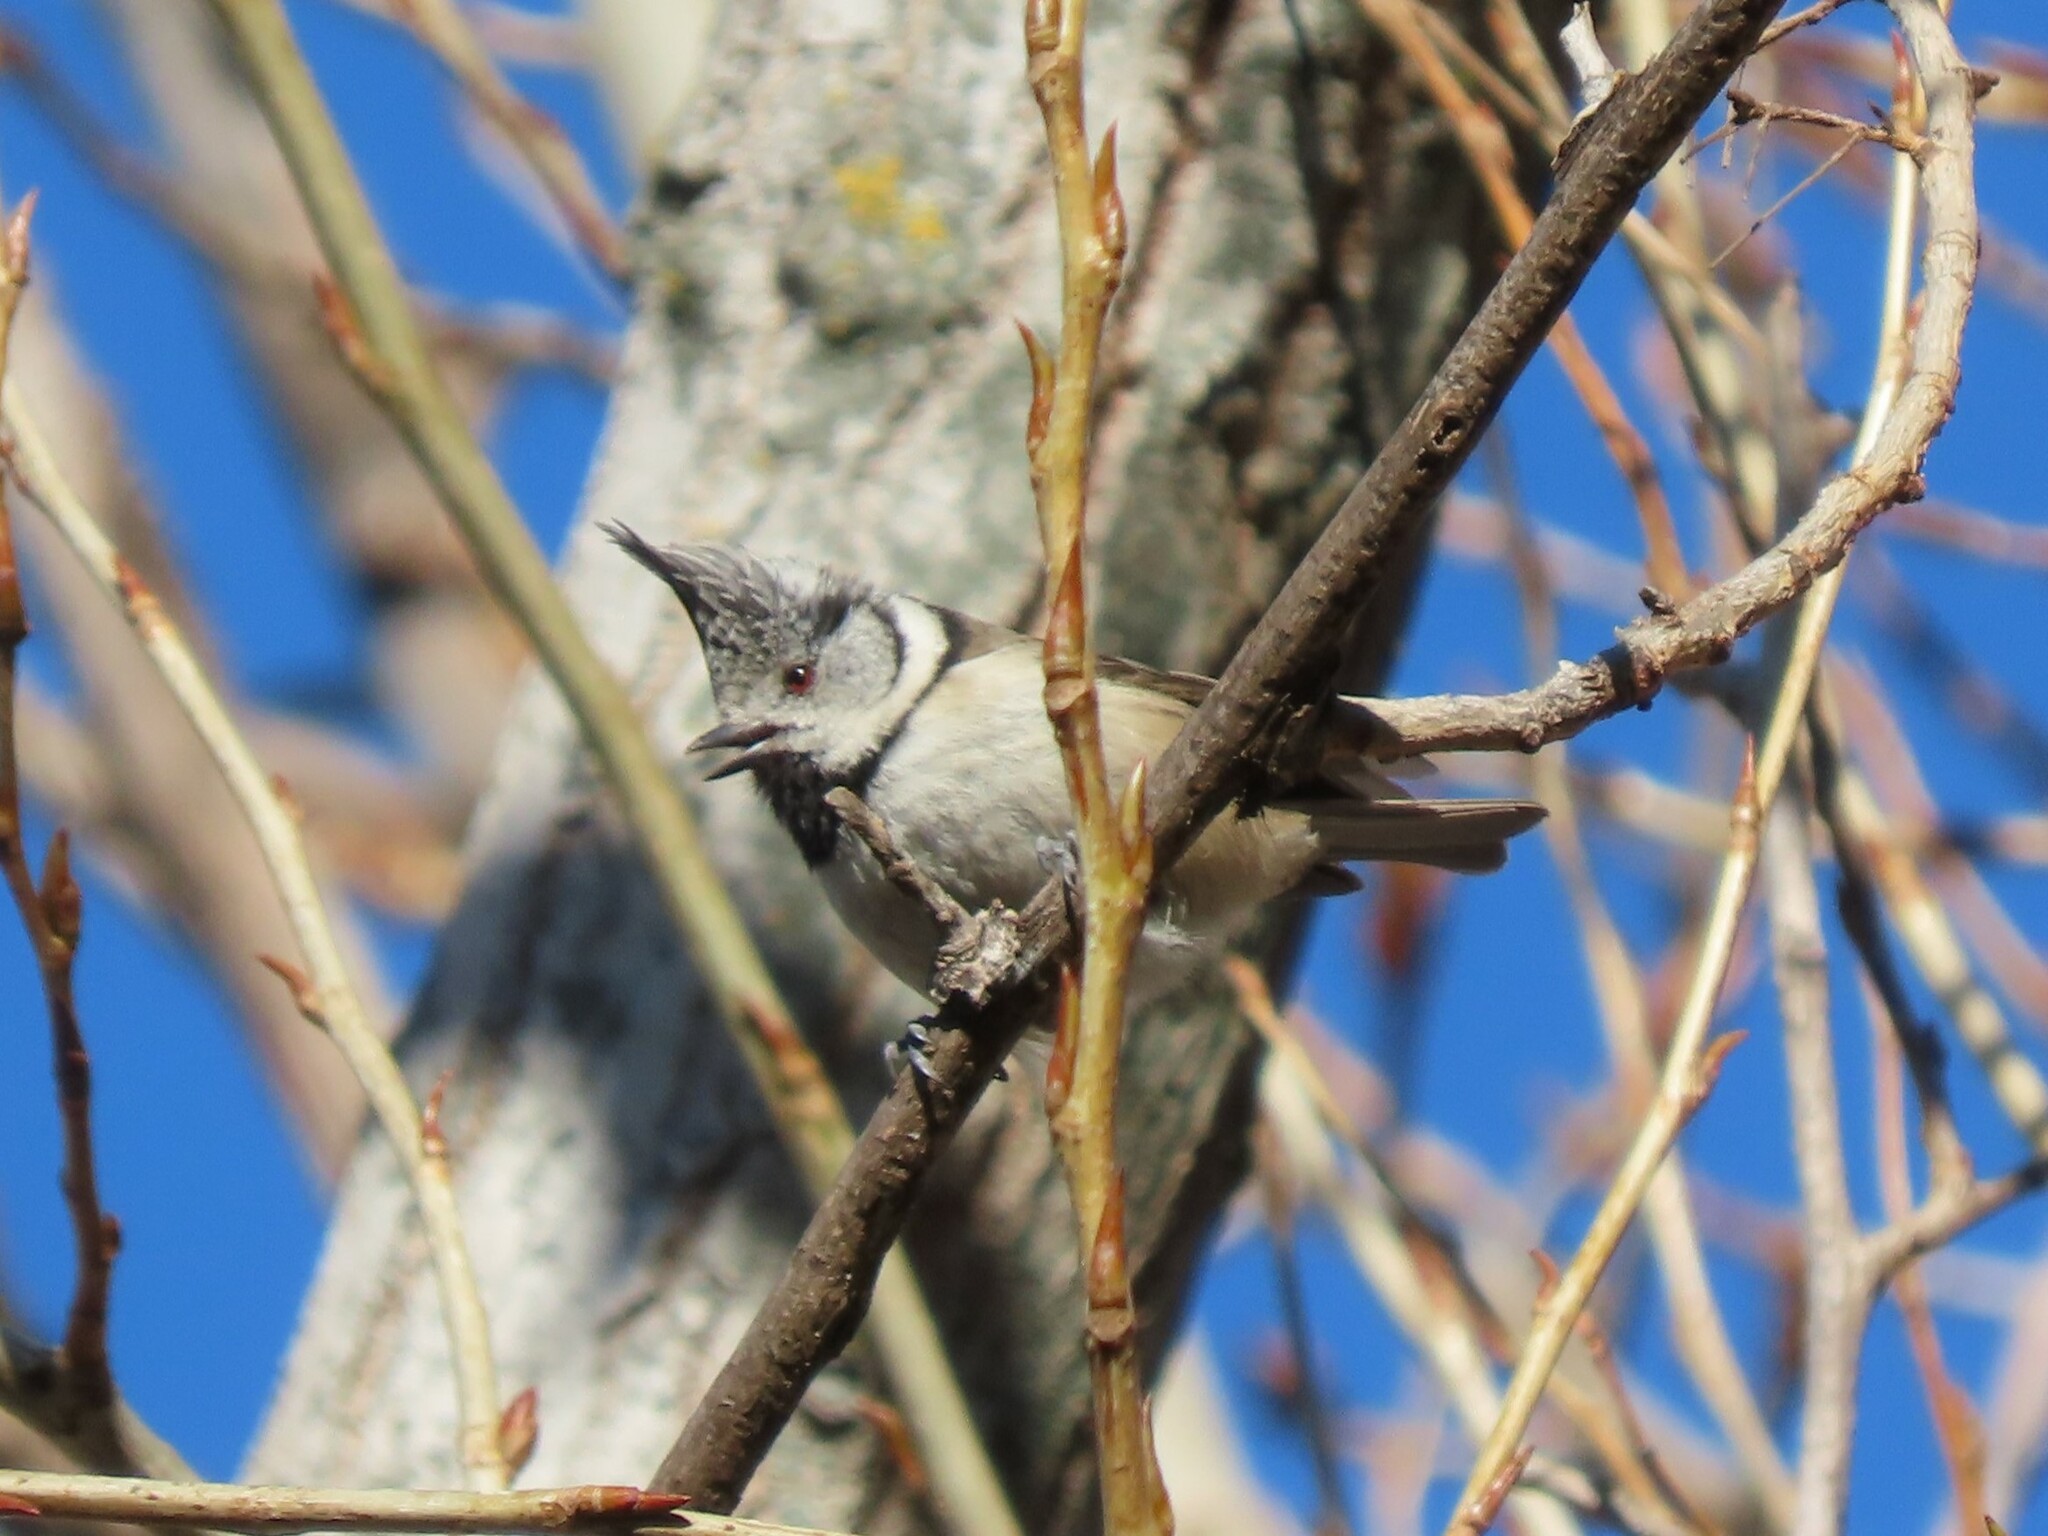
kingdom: Animalia
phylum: Chordata
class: Aves
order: Passeriformes
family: Paridae
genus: Lophophanes
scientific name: Lophophanes cristatus
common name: European crested tit
